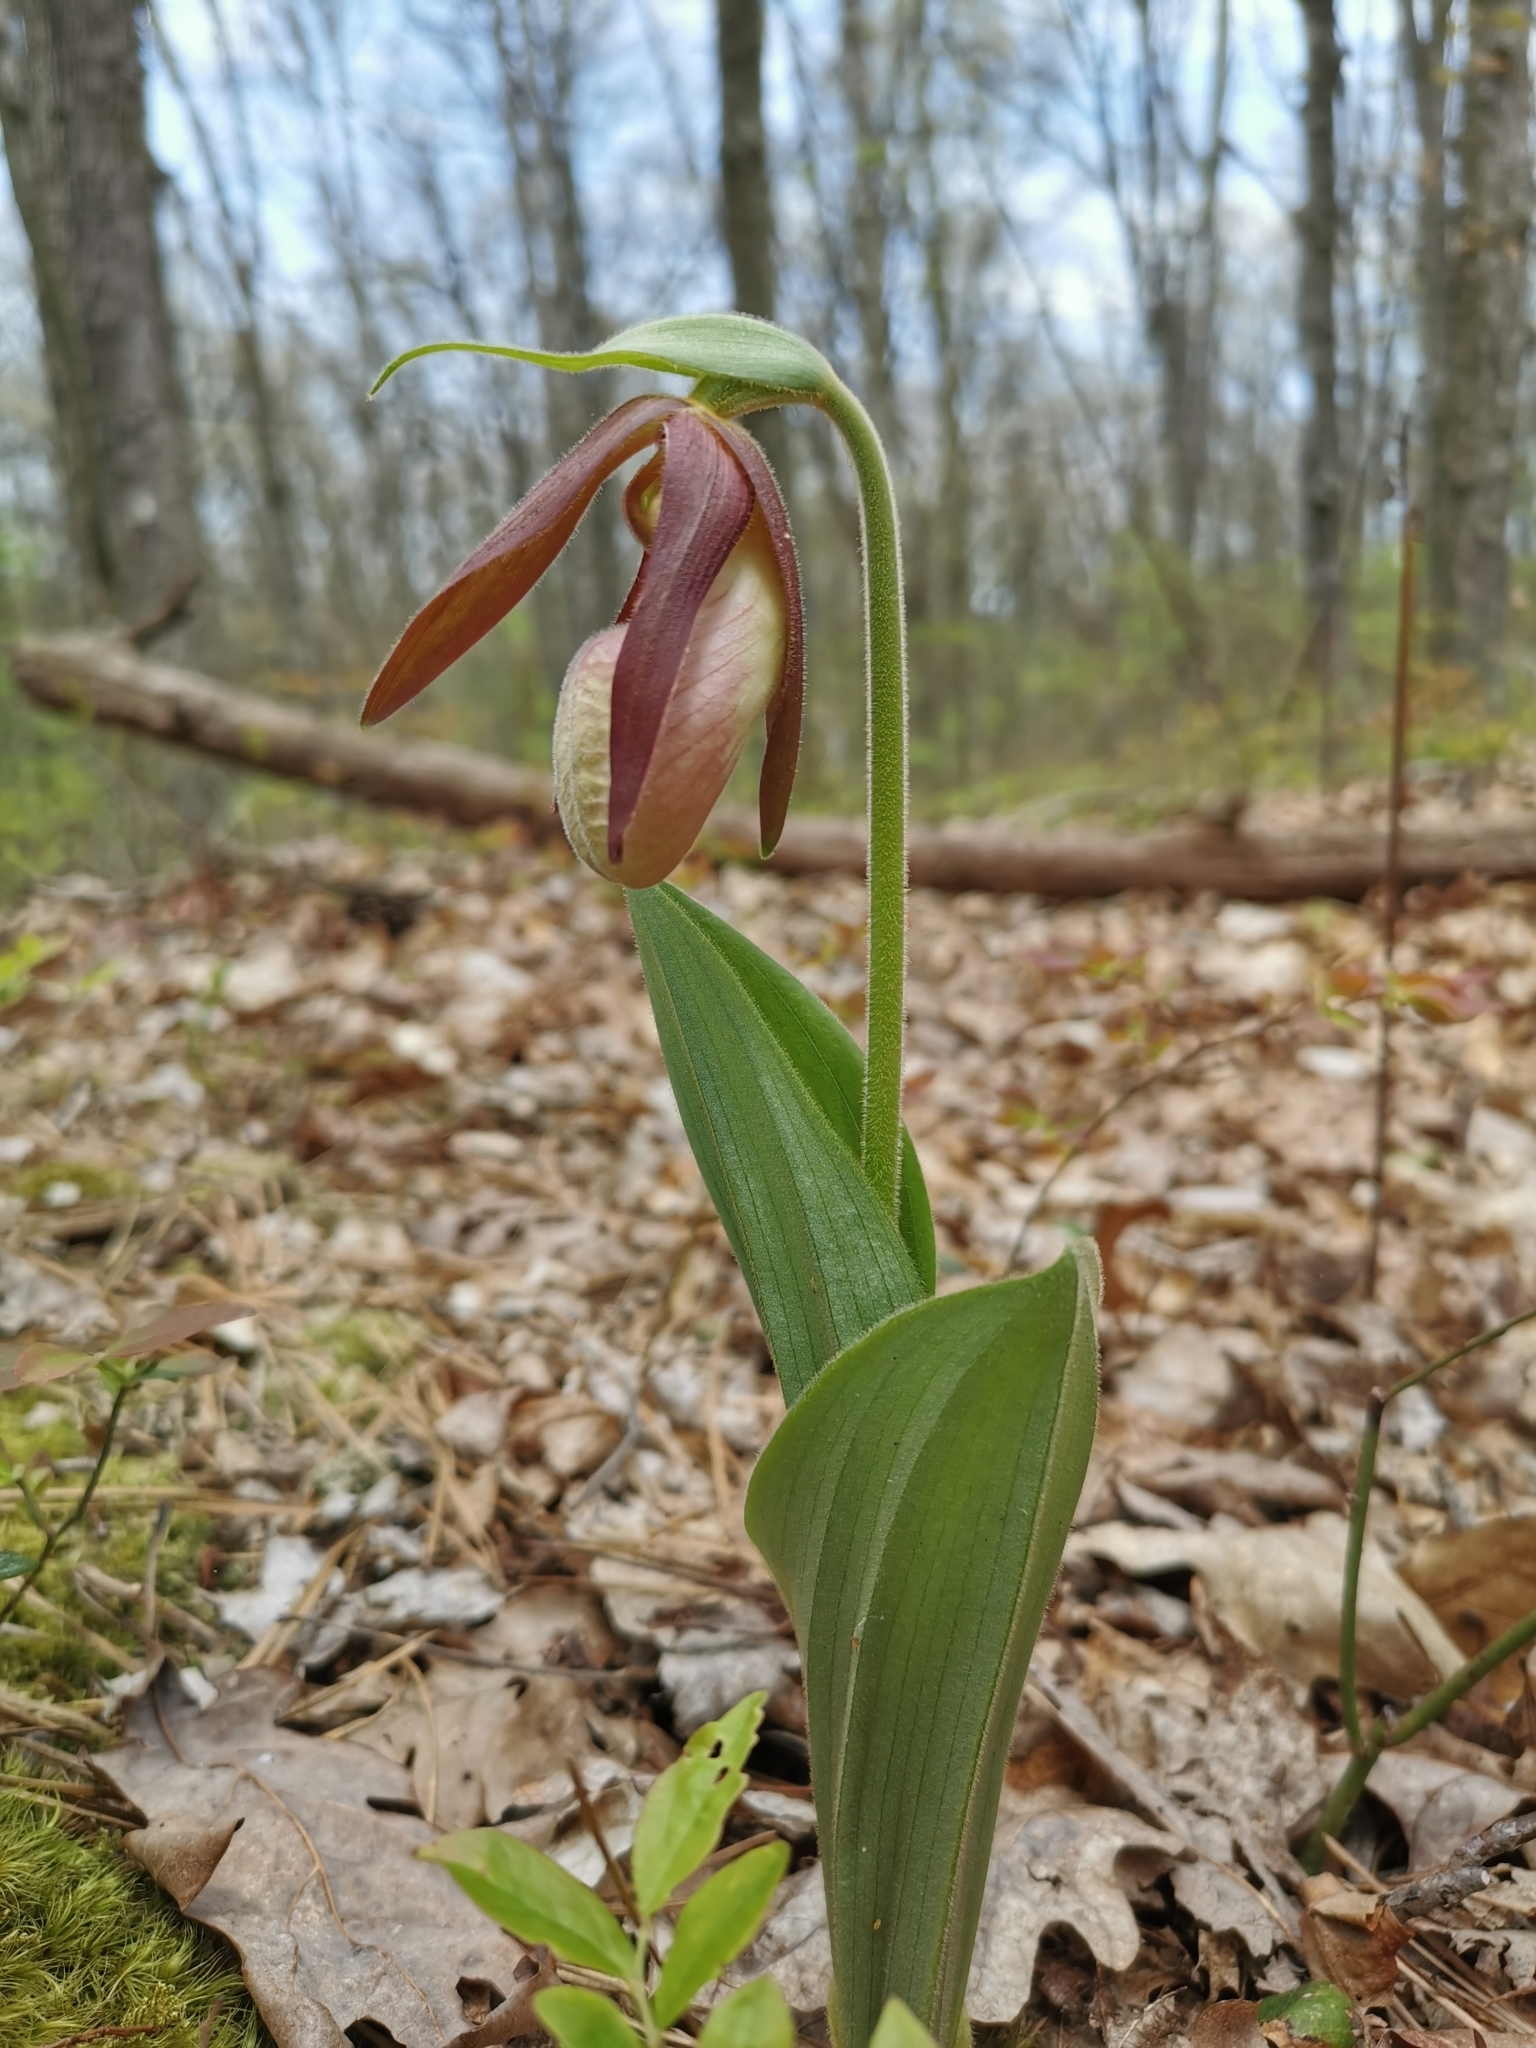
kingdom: Plantae
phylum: Tracheophyta
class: Liliopsida
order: Asparagales
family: Orchidaceae
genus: Cypripedium
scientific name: Cypripedium acaule
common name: Pink lady's-slipper
